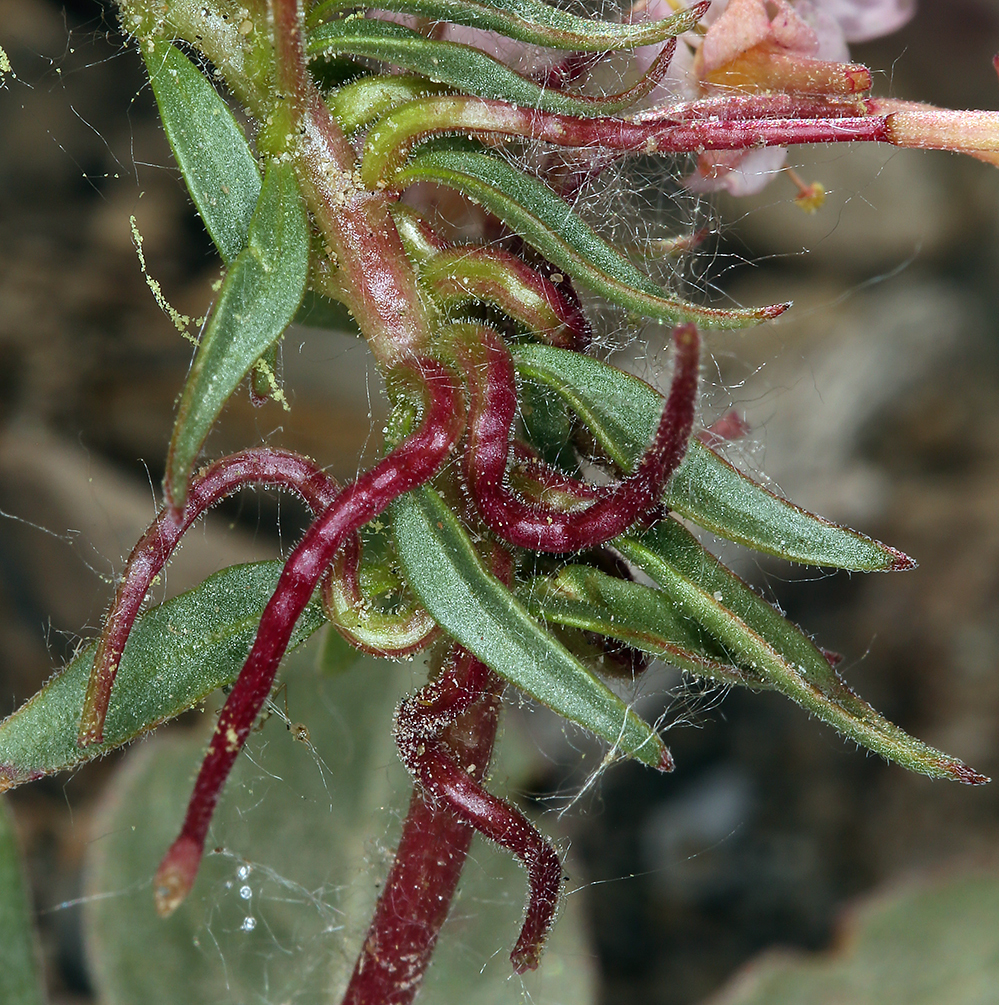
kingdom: Plantae
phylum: Tracheophyta
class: Magnoliopsida
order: Myrtales
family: Onagraceae
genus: Eremothera
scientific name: Eremothera boothii
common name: Booth's evening primrose
